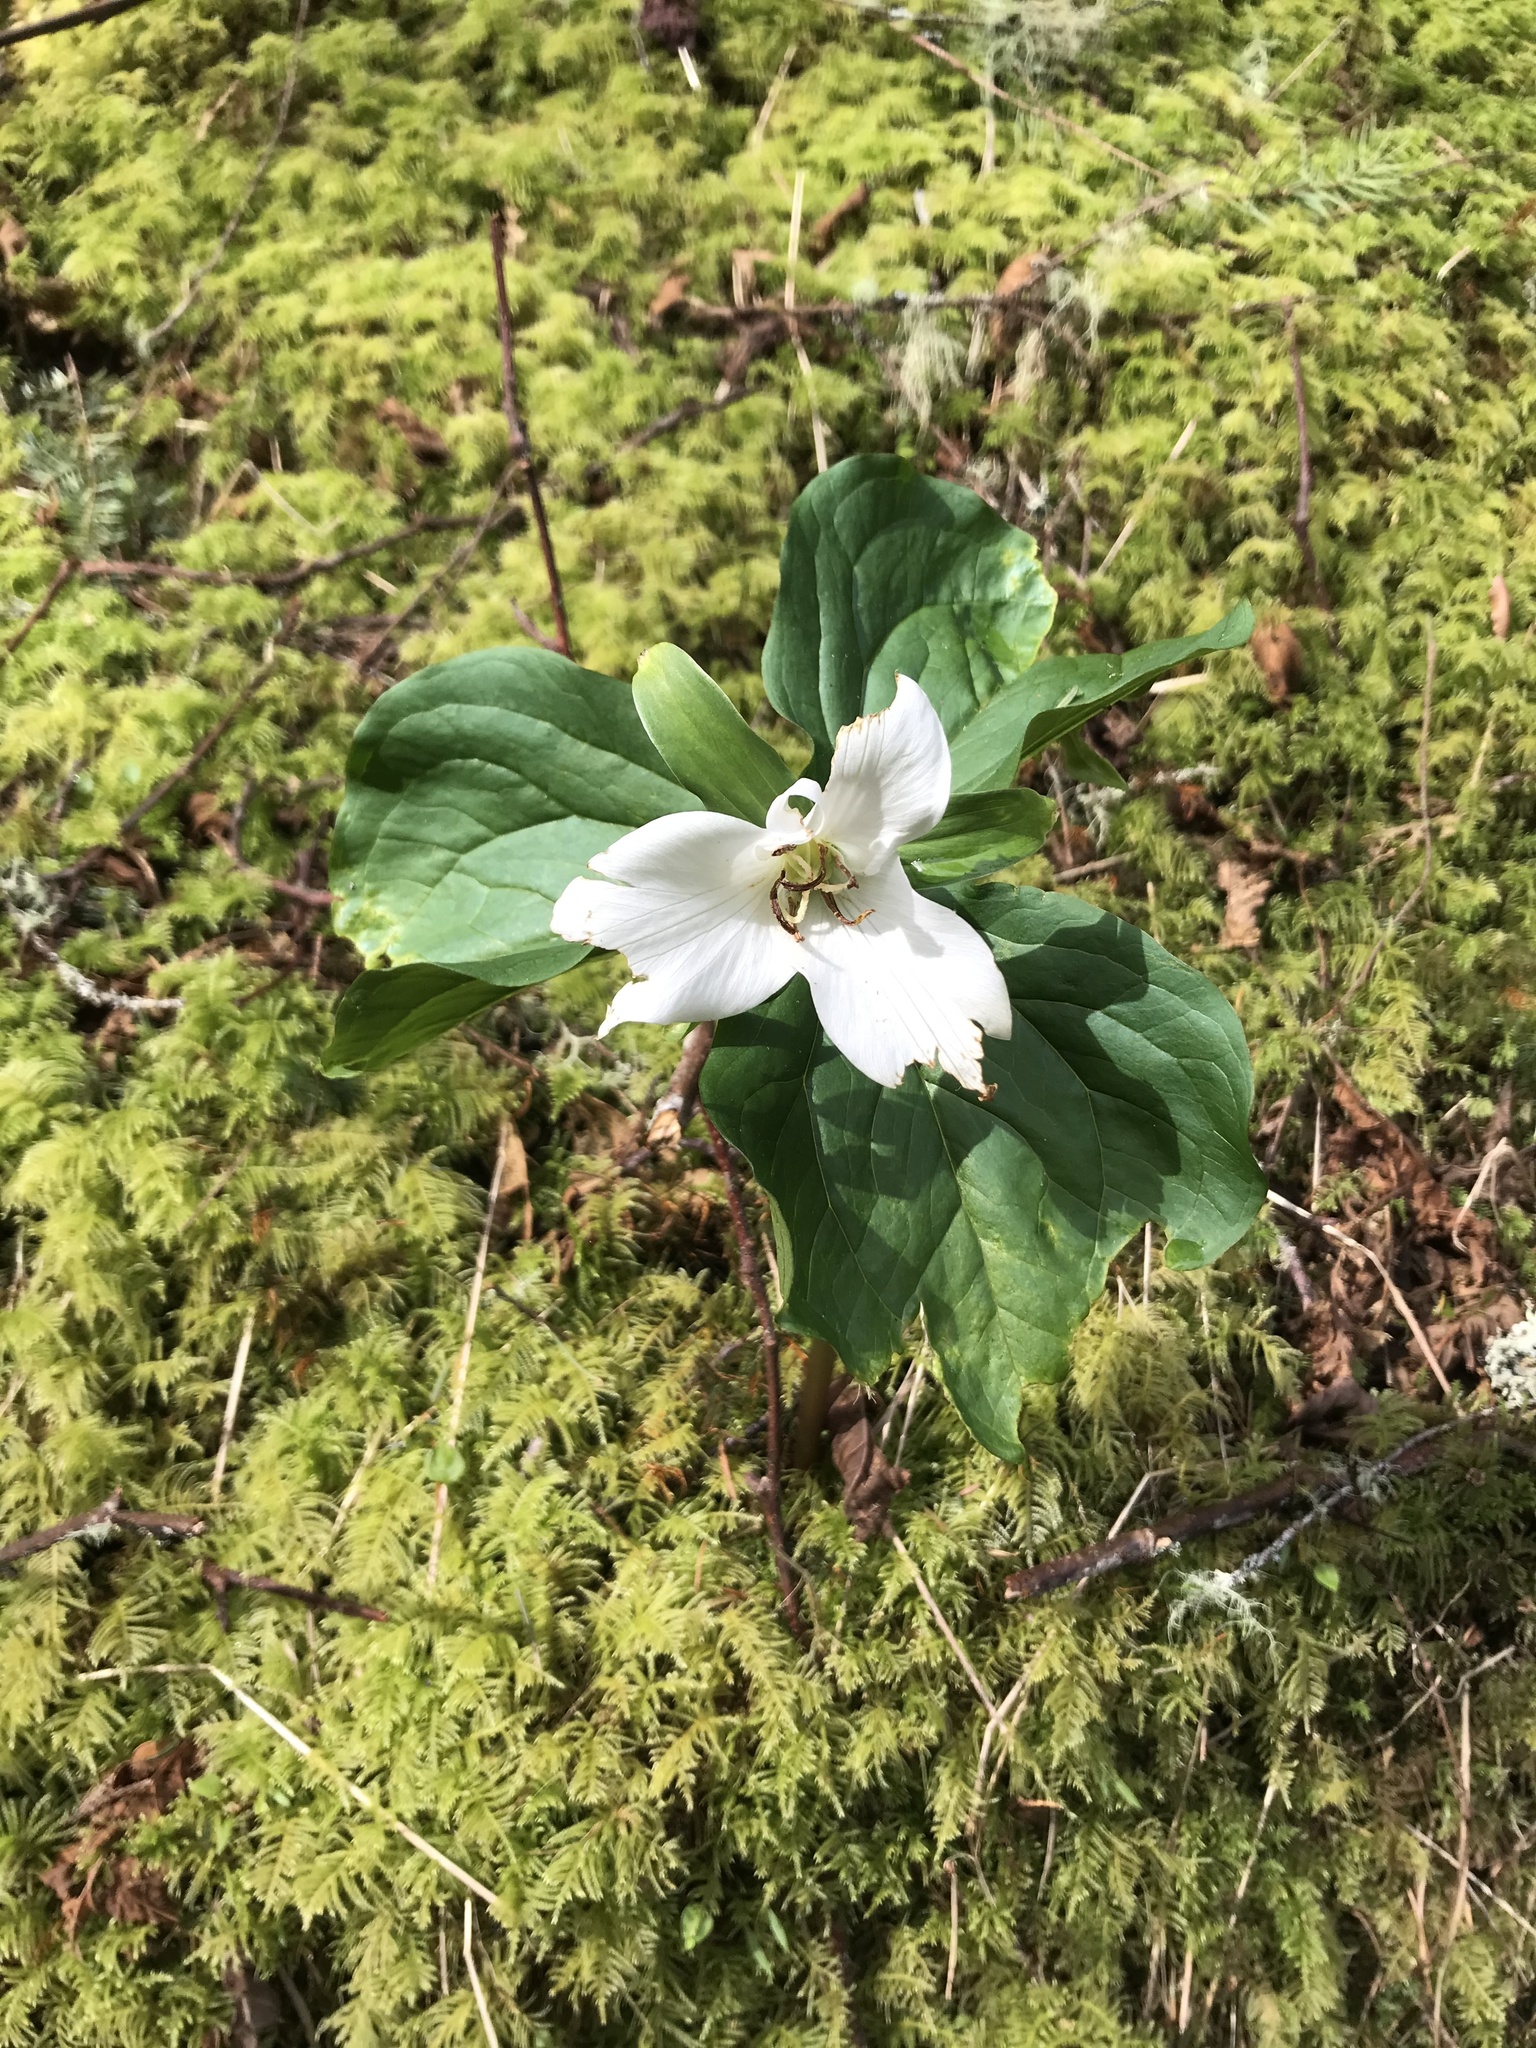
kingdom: Plantae
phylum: Tracheophyta
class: Liliopsida
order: Liliales
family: Melanthiaceae
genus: Trillium
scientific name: Trillium ovatum
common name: Pacific trillium
